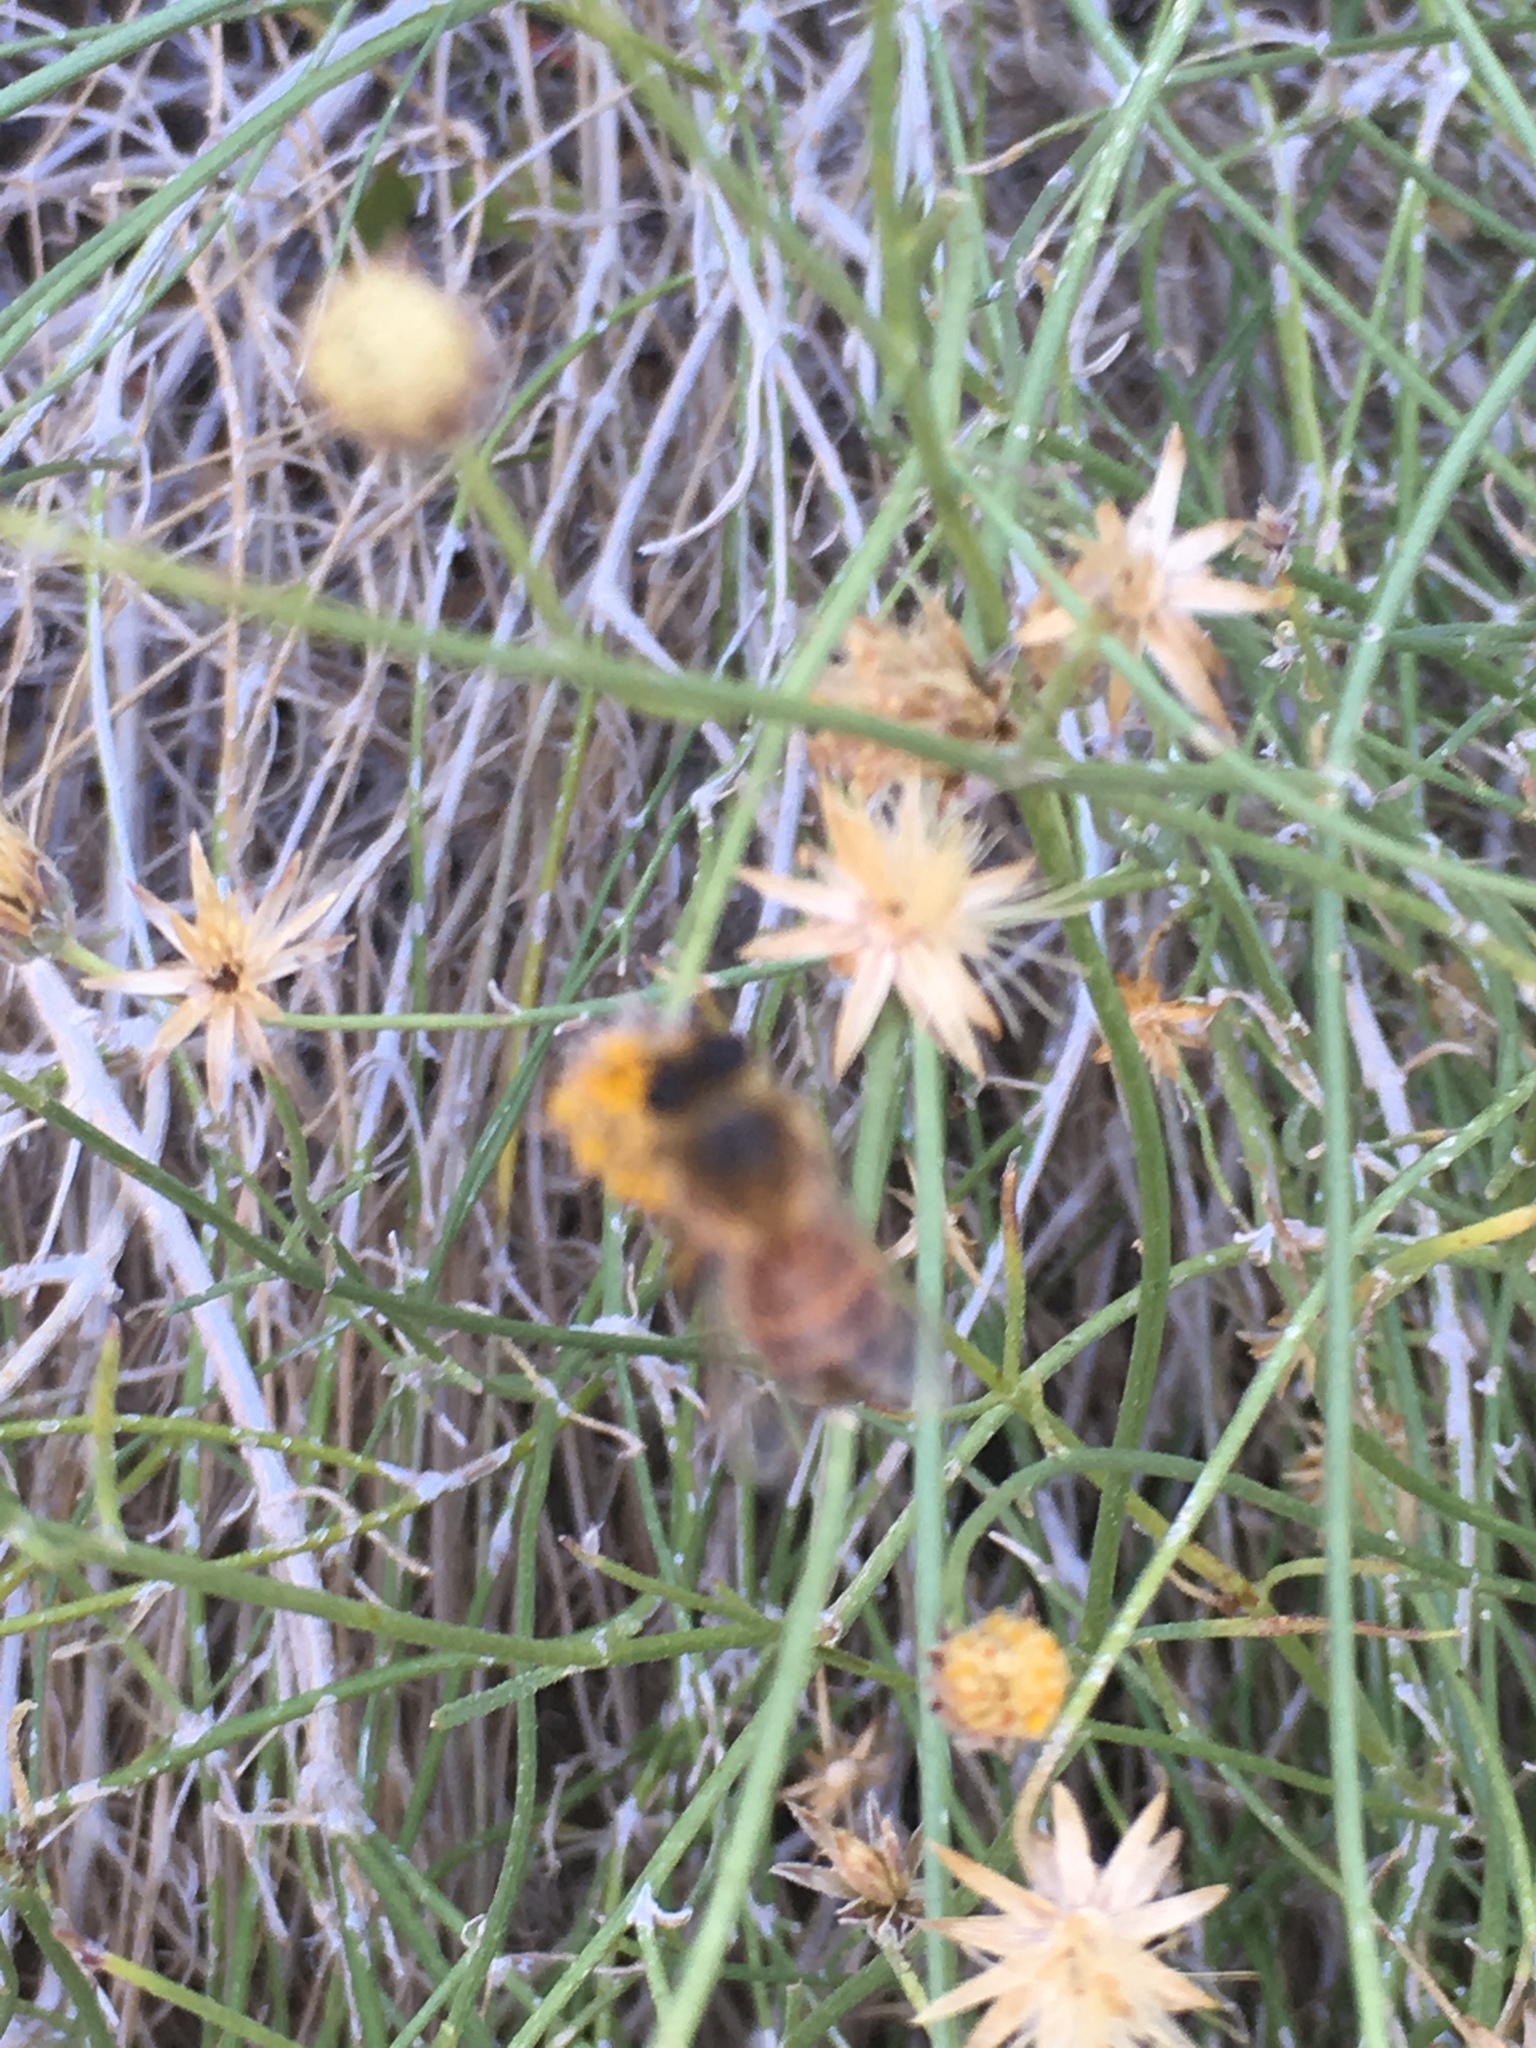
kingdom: Animalia
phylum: Arthropoda
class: Insecta
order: Hymenoptera
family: Apidae
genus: Apis
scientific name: Apis mellifera
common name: Honey bee
